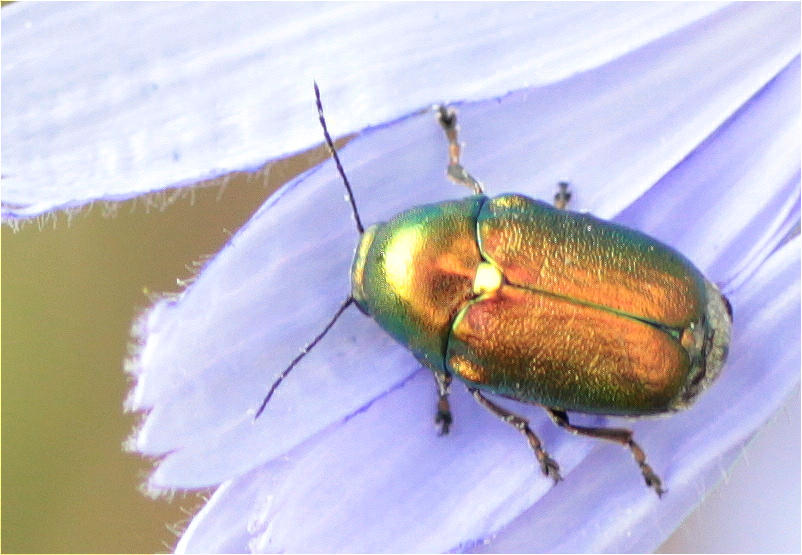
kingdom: Animalia
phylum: Arthropoda
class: Insecta
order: Coleoptera
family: Chrysomelidae
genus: Cryptocephalus
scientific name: Cryptocephalus sericeus
